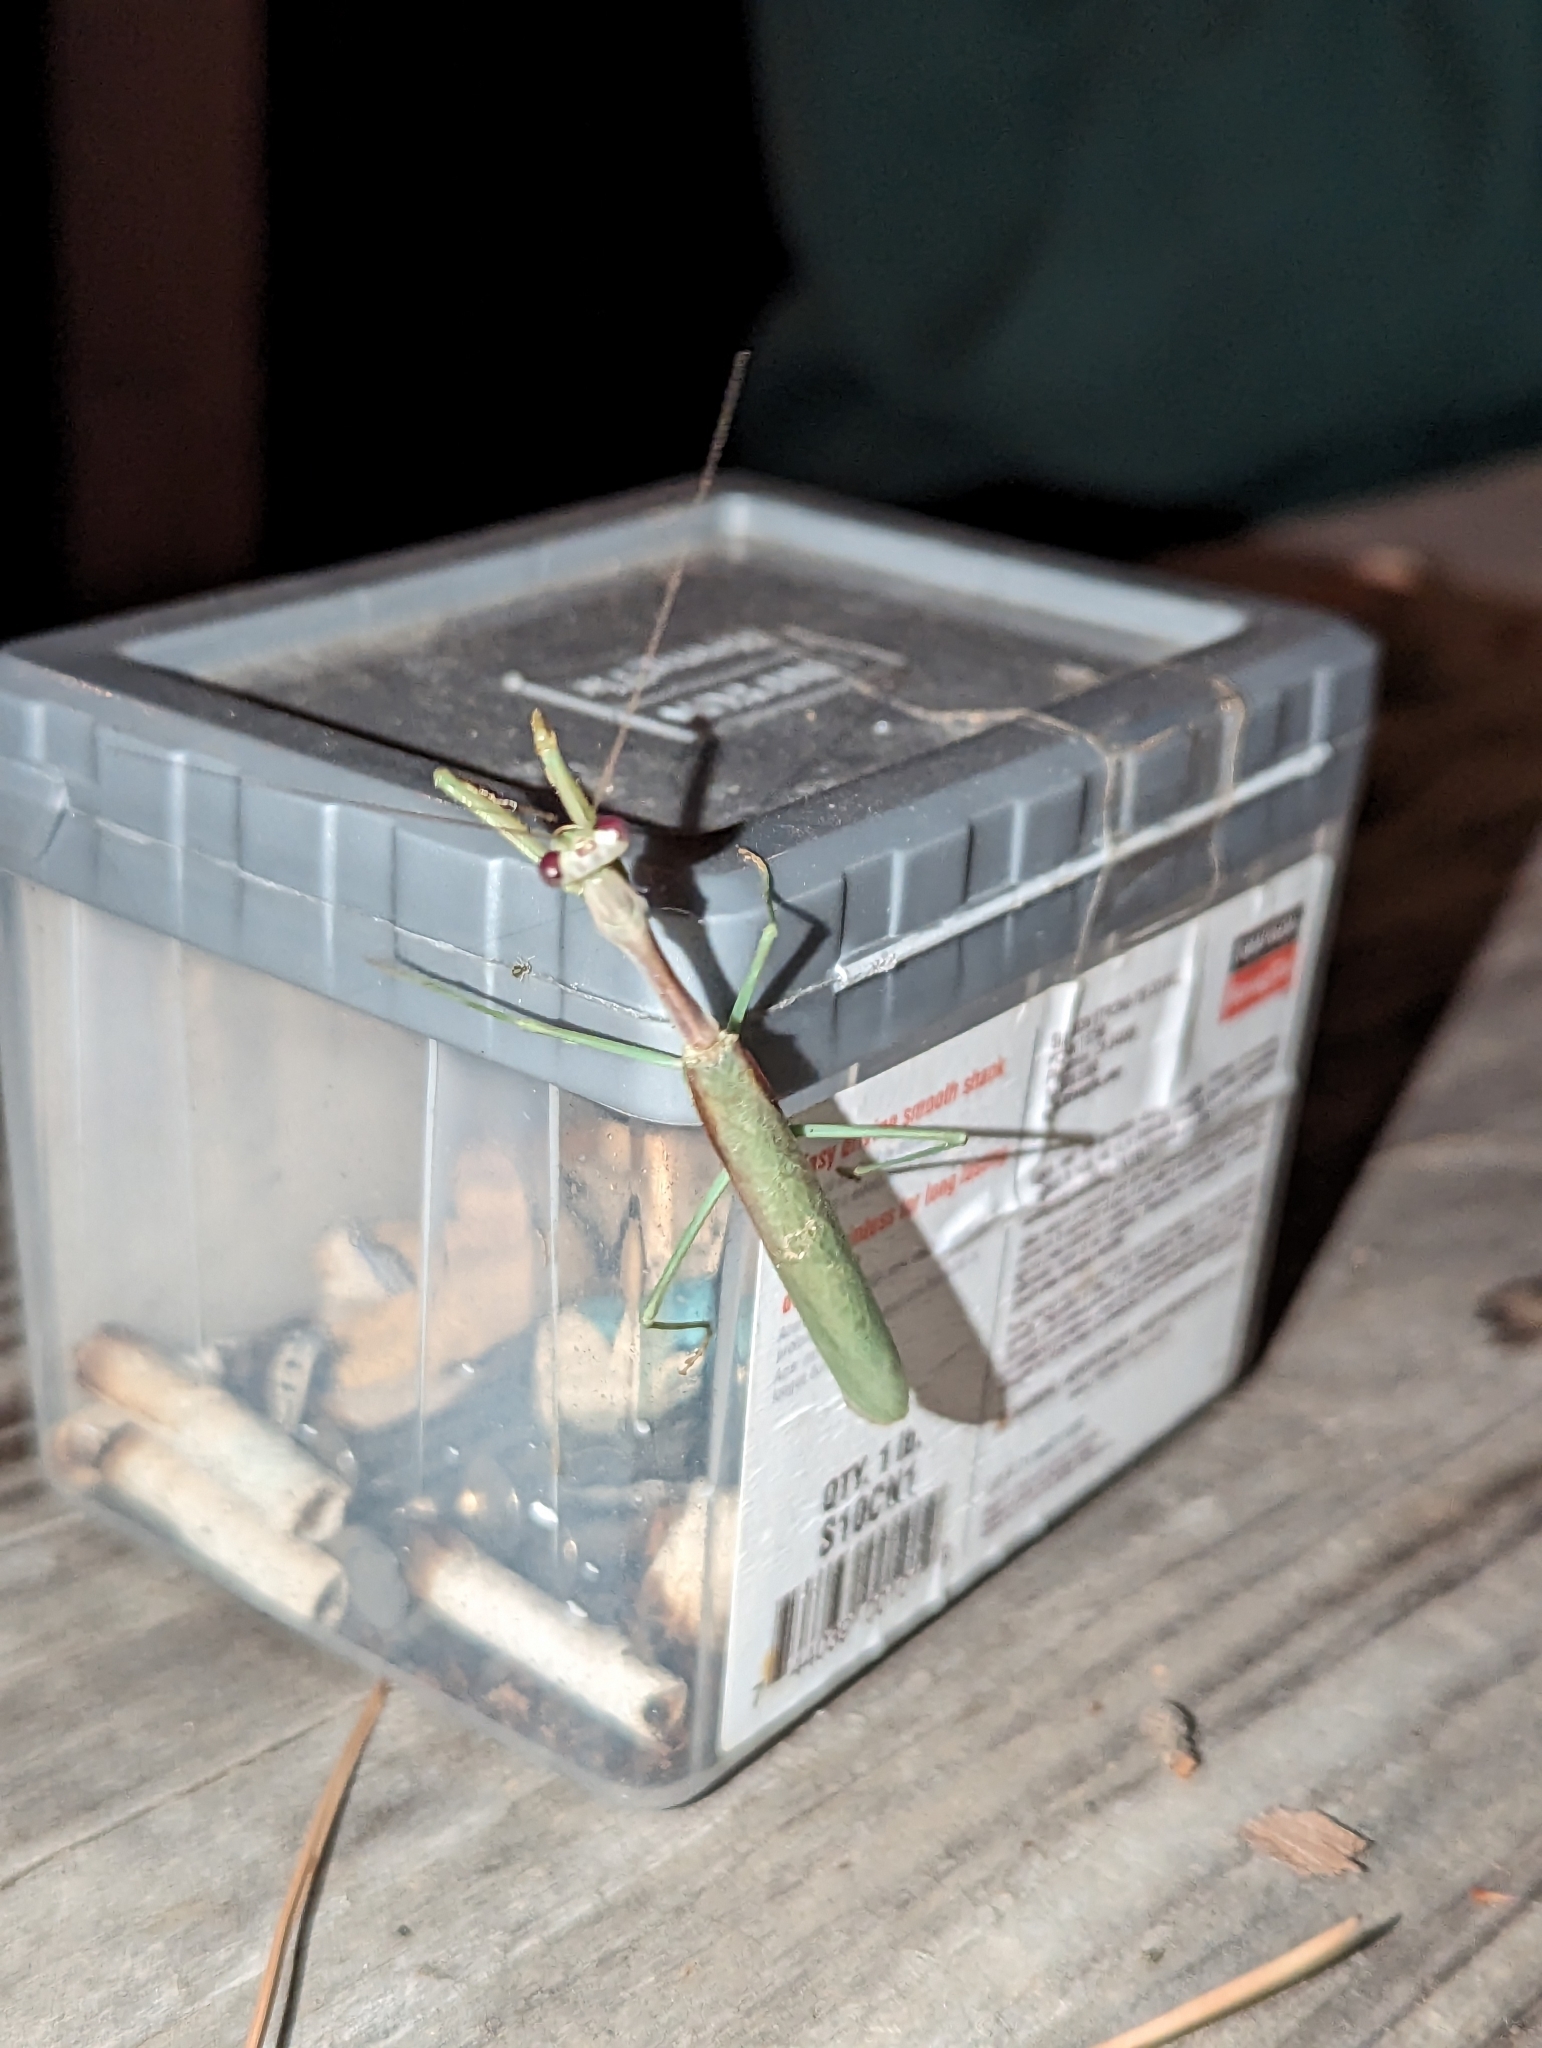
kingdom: Animalia
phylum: Arthropoda
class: Insecta
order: Mantodea
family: Mantidae
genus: Stagmomantis
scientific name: Stagmomantis limbata
